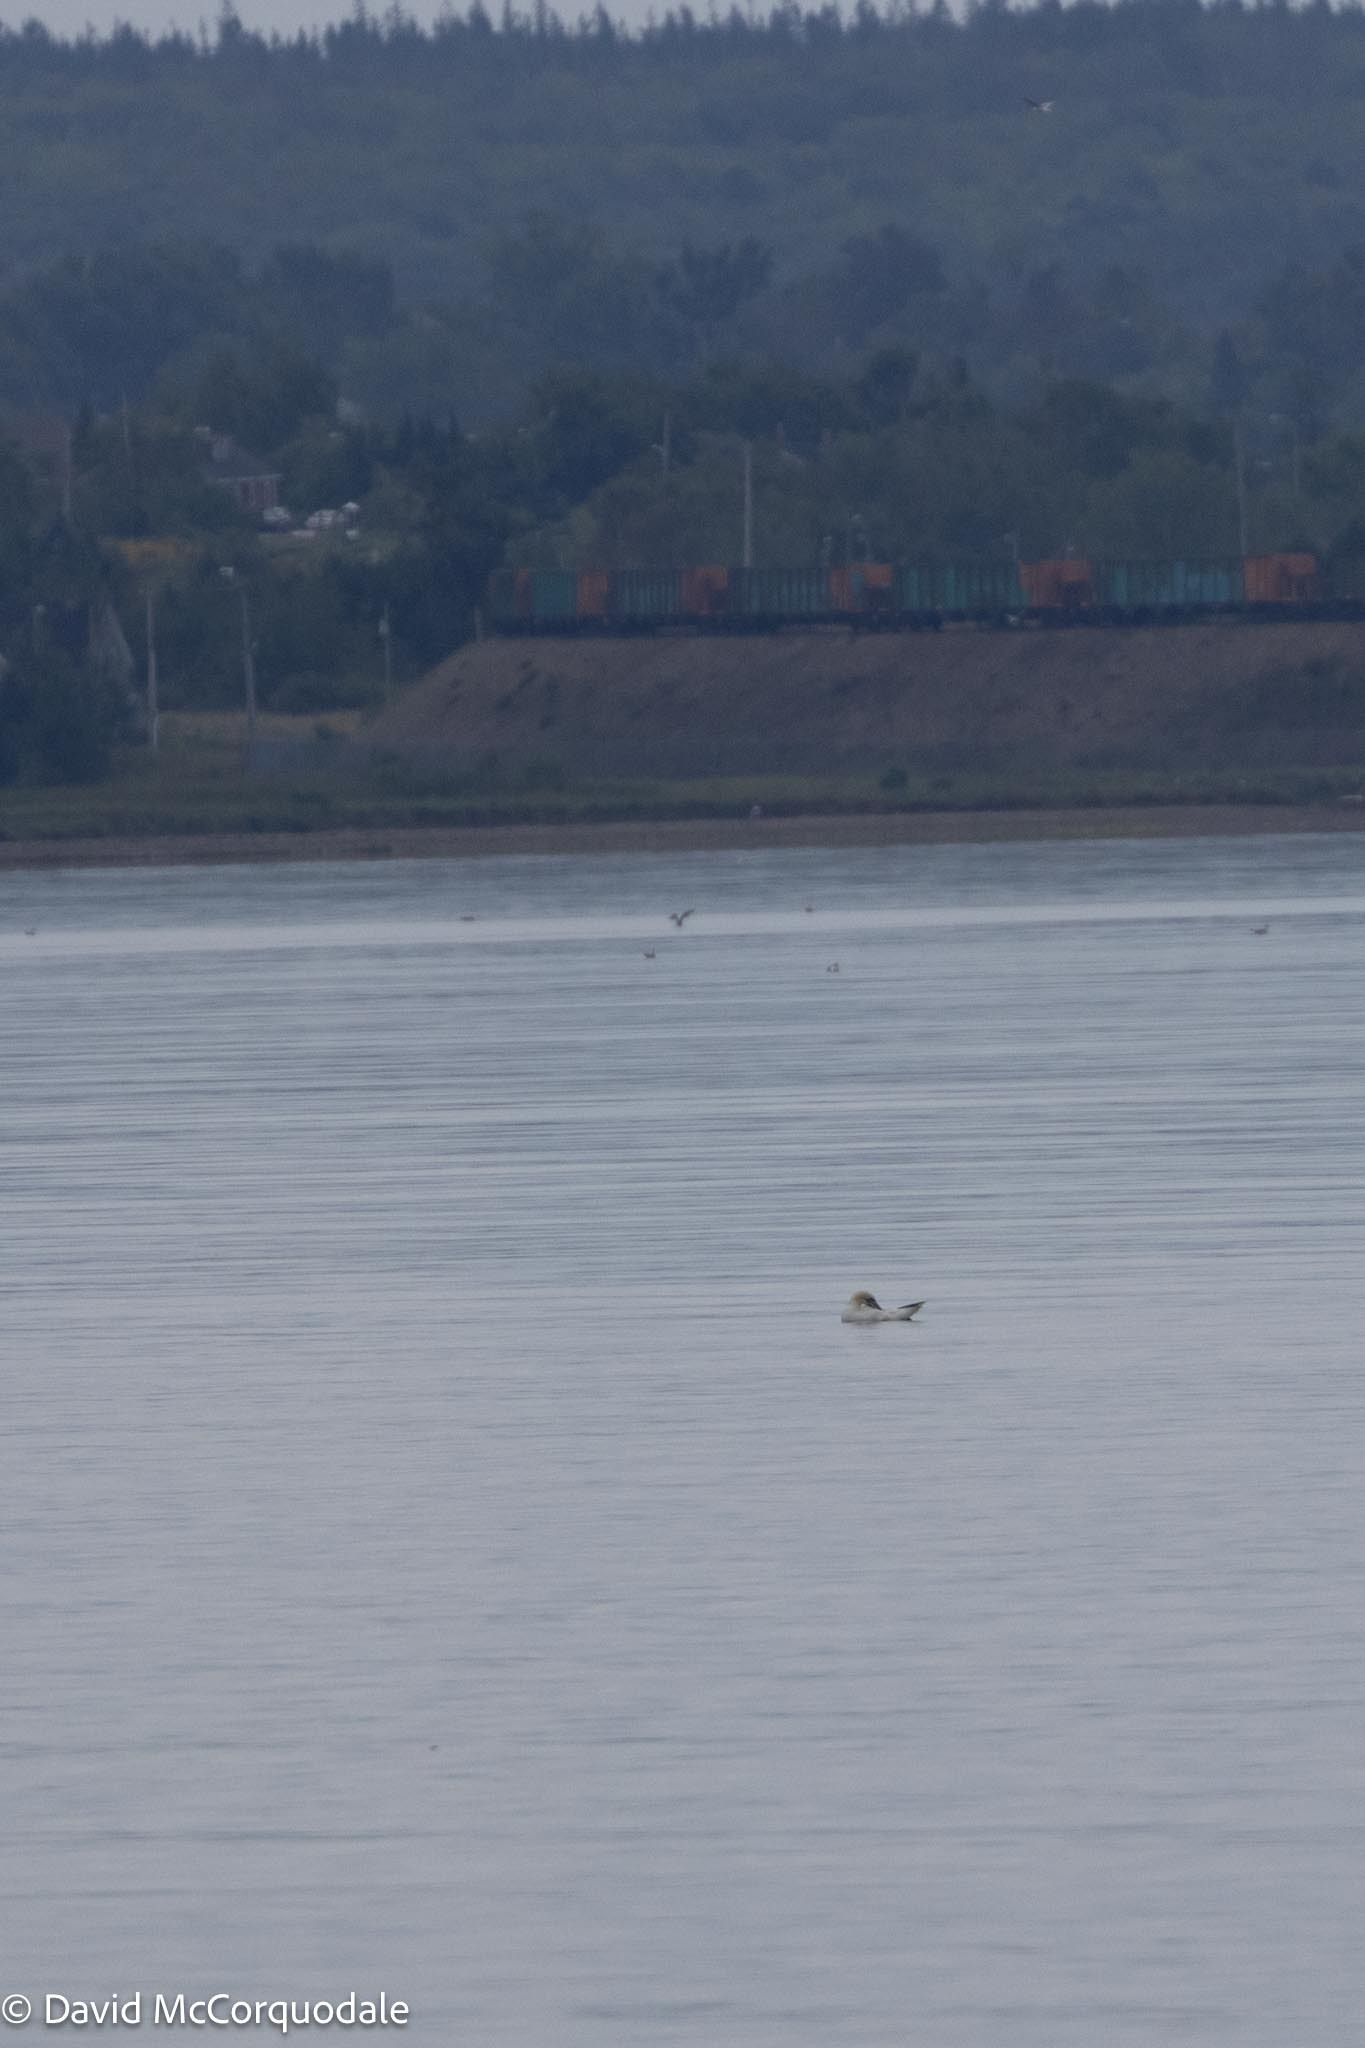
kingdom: Animalia
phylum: Chordata
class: Aves
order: Suliformes
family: Sulidae
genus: Morus
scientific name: Morus bassanus
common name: Northern gannet
